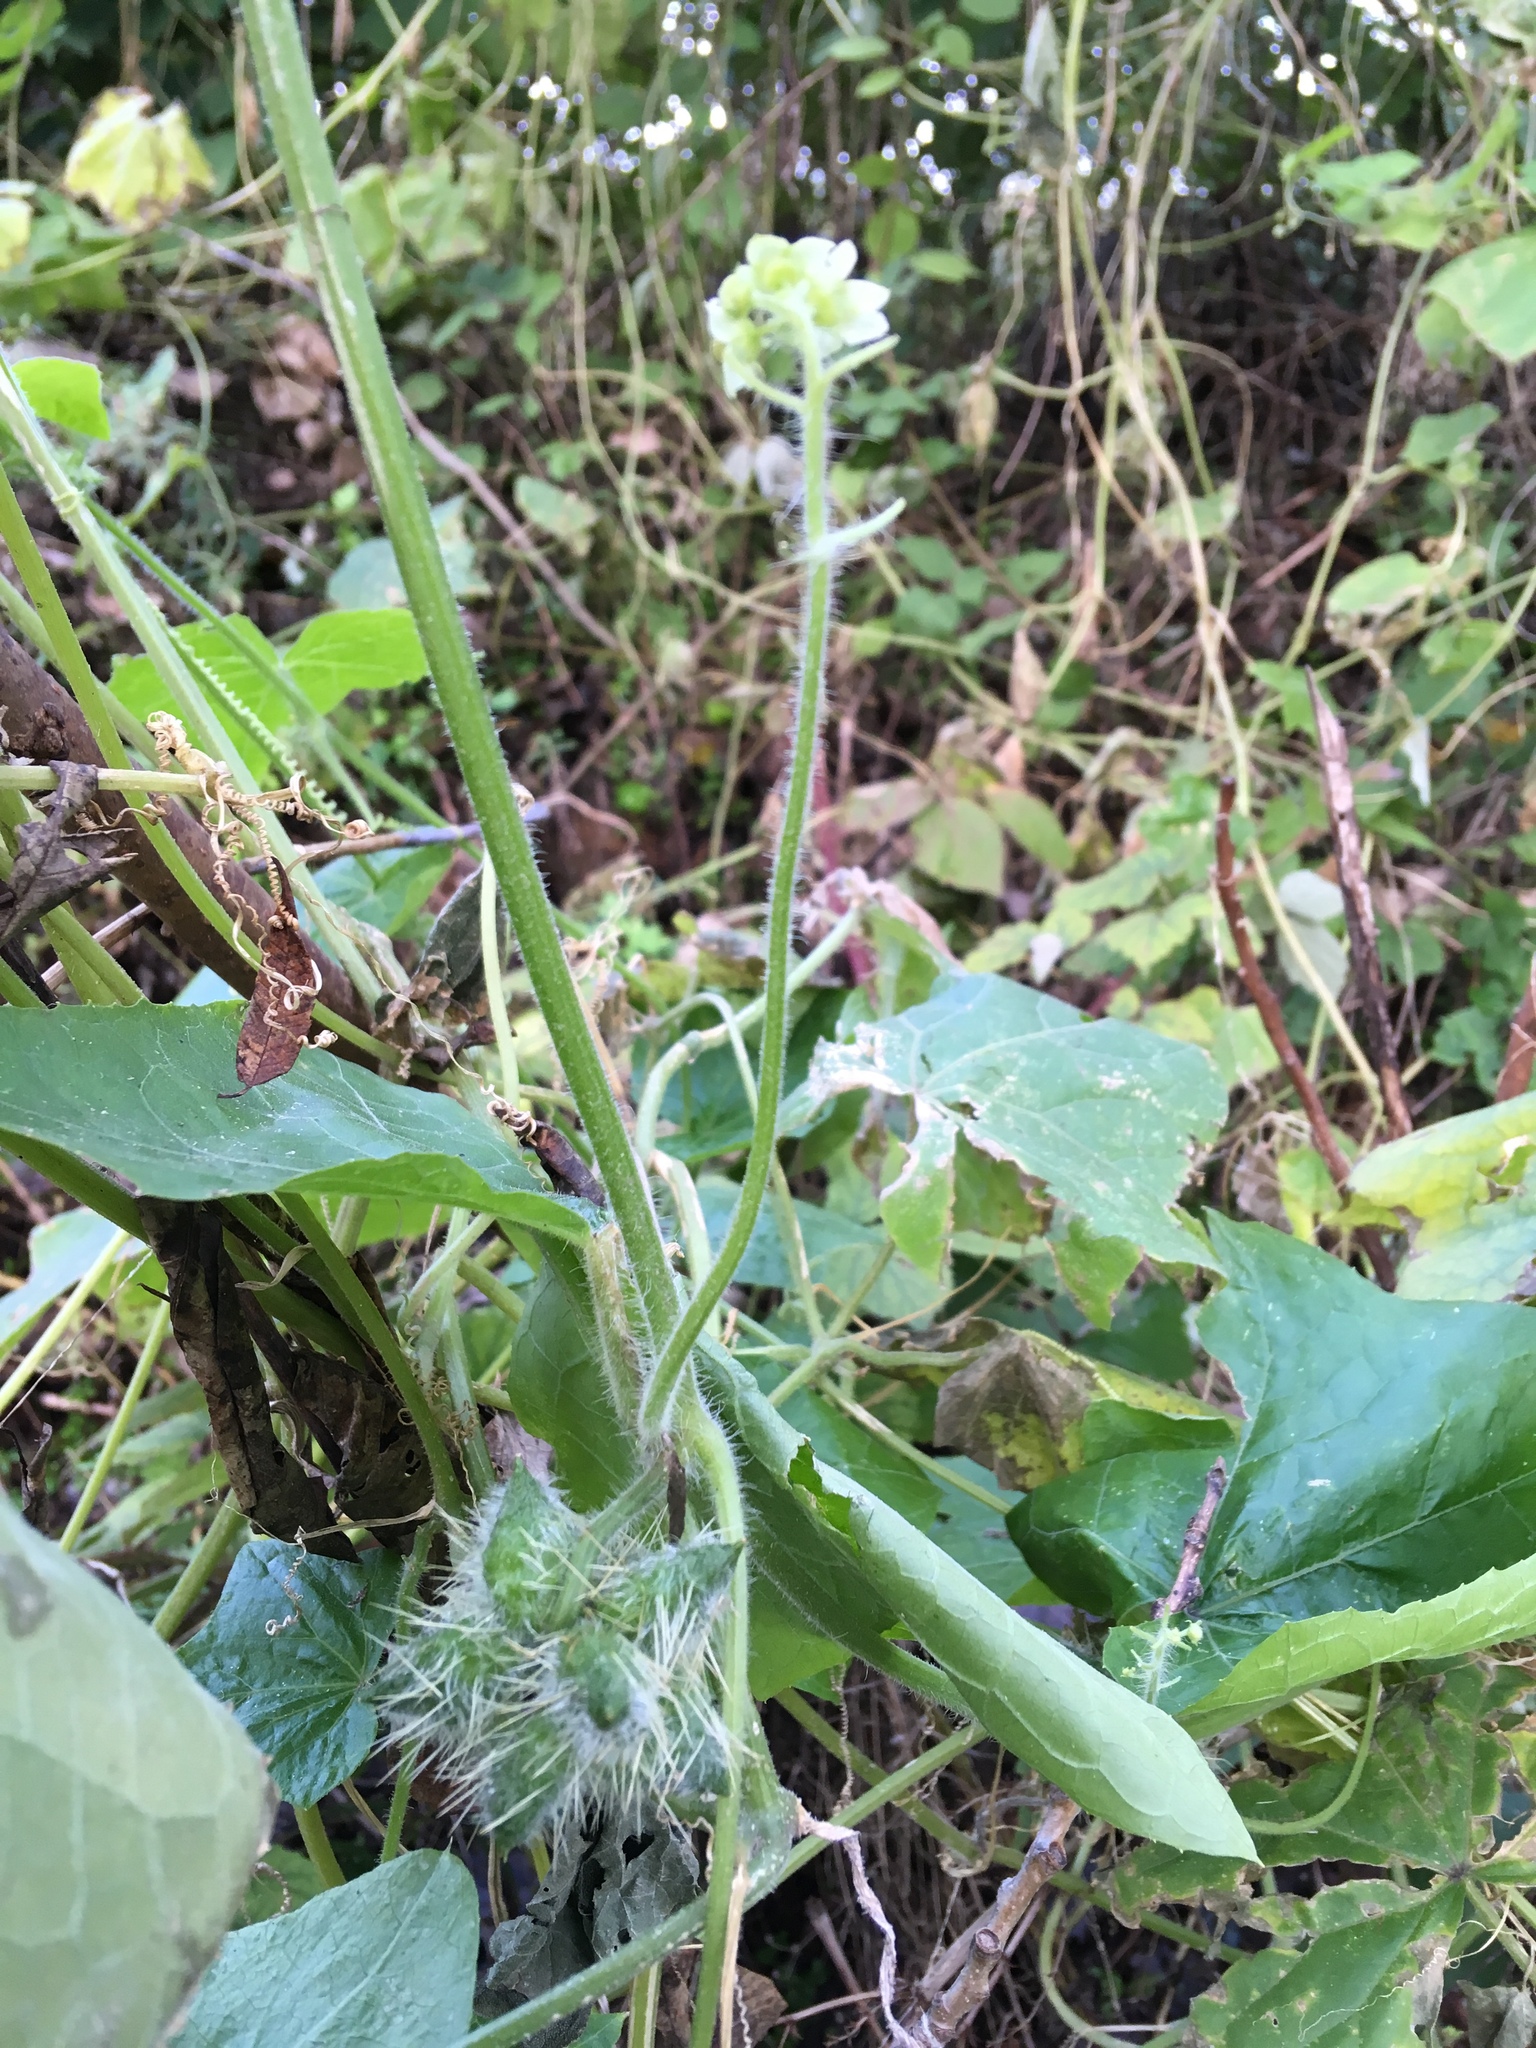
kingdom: Plantae
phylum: Tracheophyta
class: Magnoliopsida
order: Cucurbitales
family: Cucurbitaceae
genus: Sicyos
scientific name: Sicyos angulatus
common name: Angled burr cucumber
